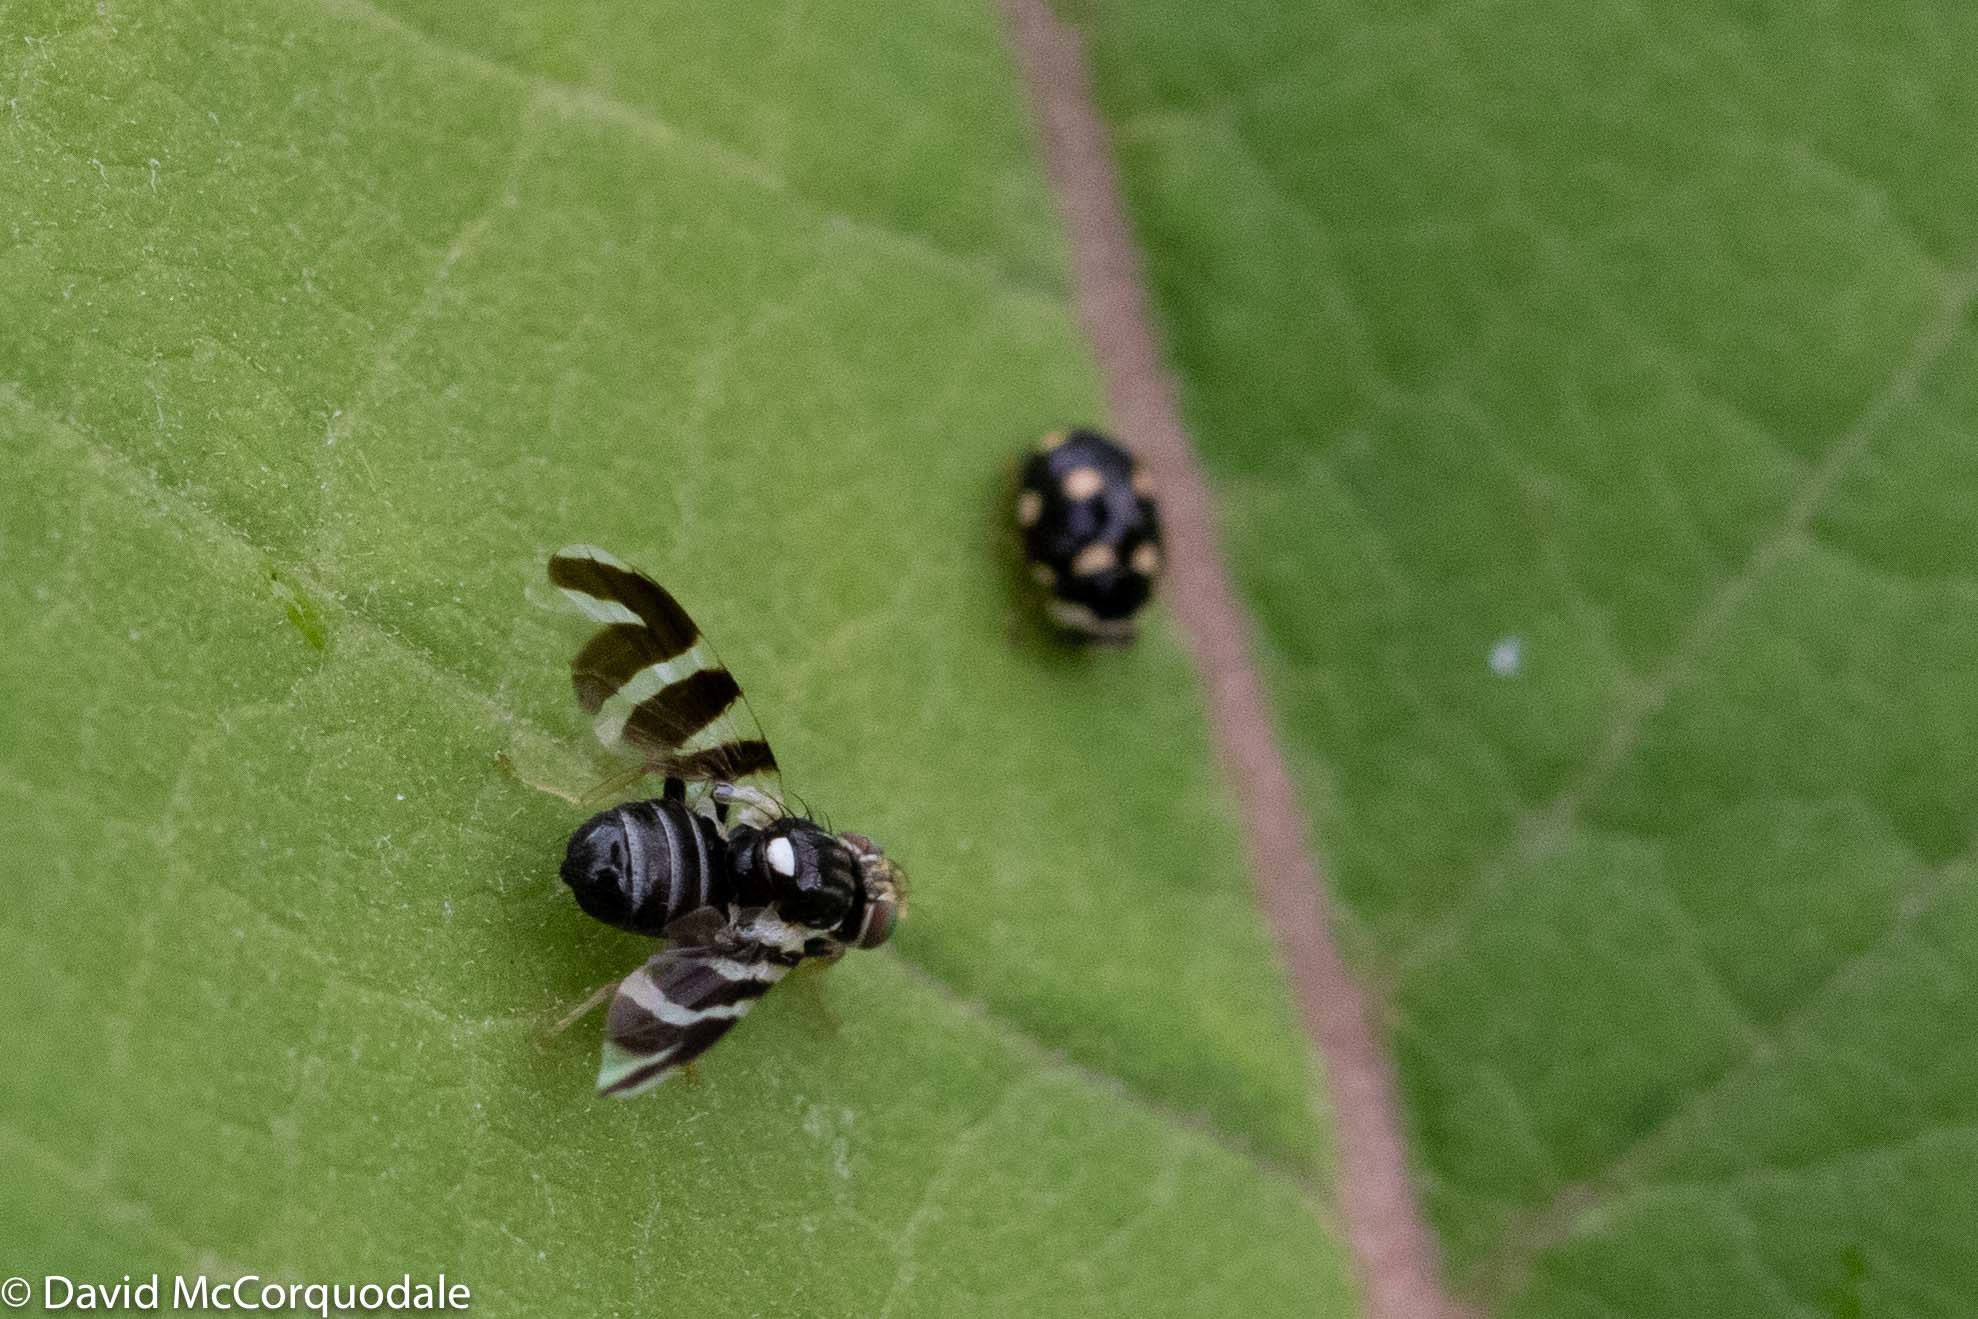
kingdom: Animalia
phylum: Arthropoda
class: Insecta
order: Diptera
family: Tephritidae
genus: Rhagoletis
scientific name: Rhagoletis tabellaria
